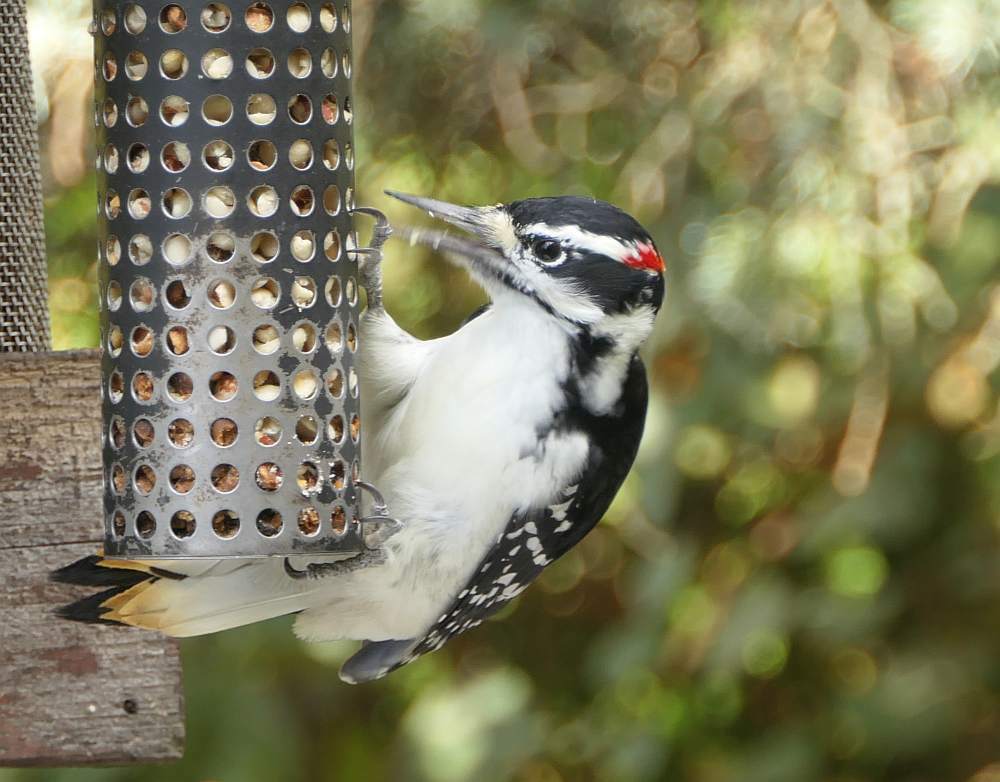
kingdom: Animalia
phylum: Chordata
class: Aves
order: Piciformes
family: Picidae
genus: Leuconotopicus
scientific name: Leuconotopicus villosus
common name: Hairy woodpecker
